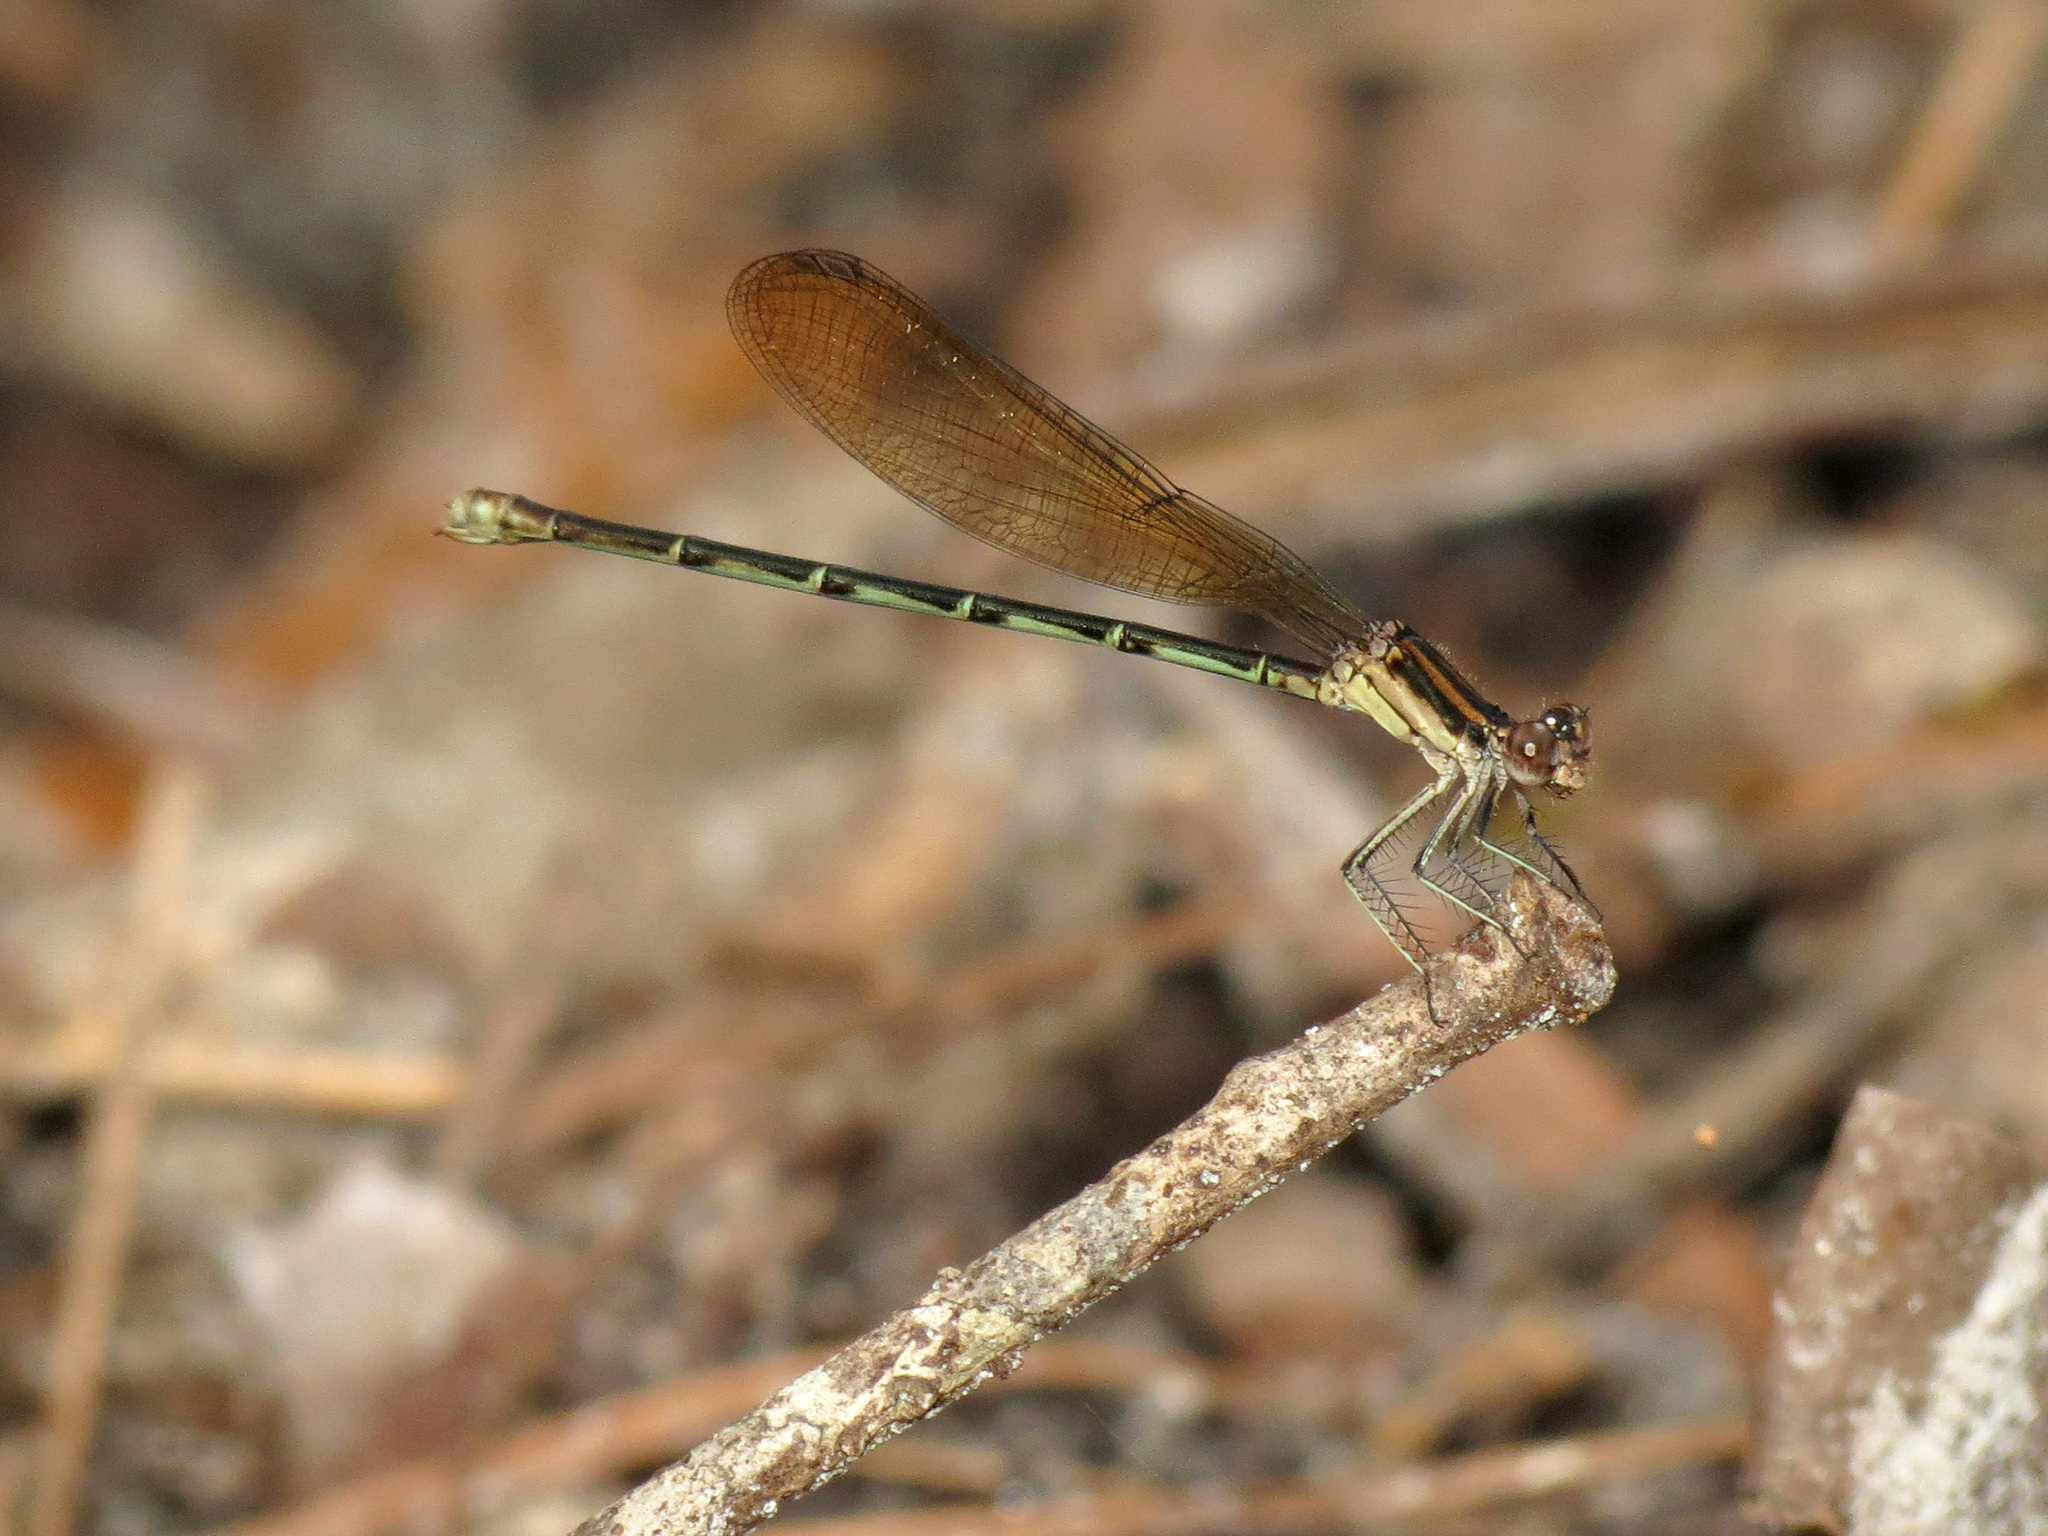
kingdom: Animalia
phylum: Arthropoda
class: Insecta
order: Odonata
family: Coenagrionidae
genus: Argia
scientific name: Argia sedula
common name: Blue-ringed dancer
